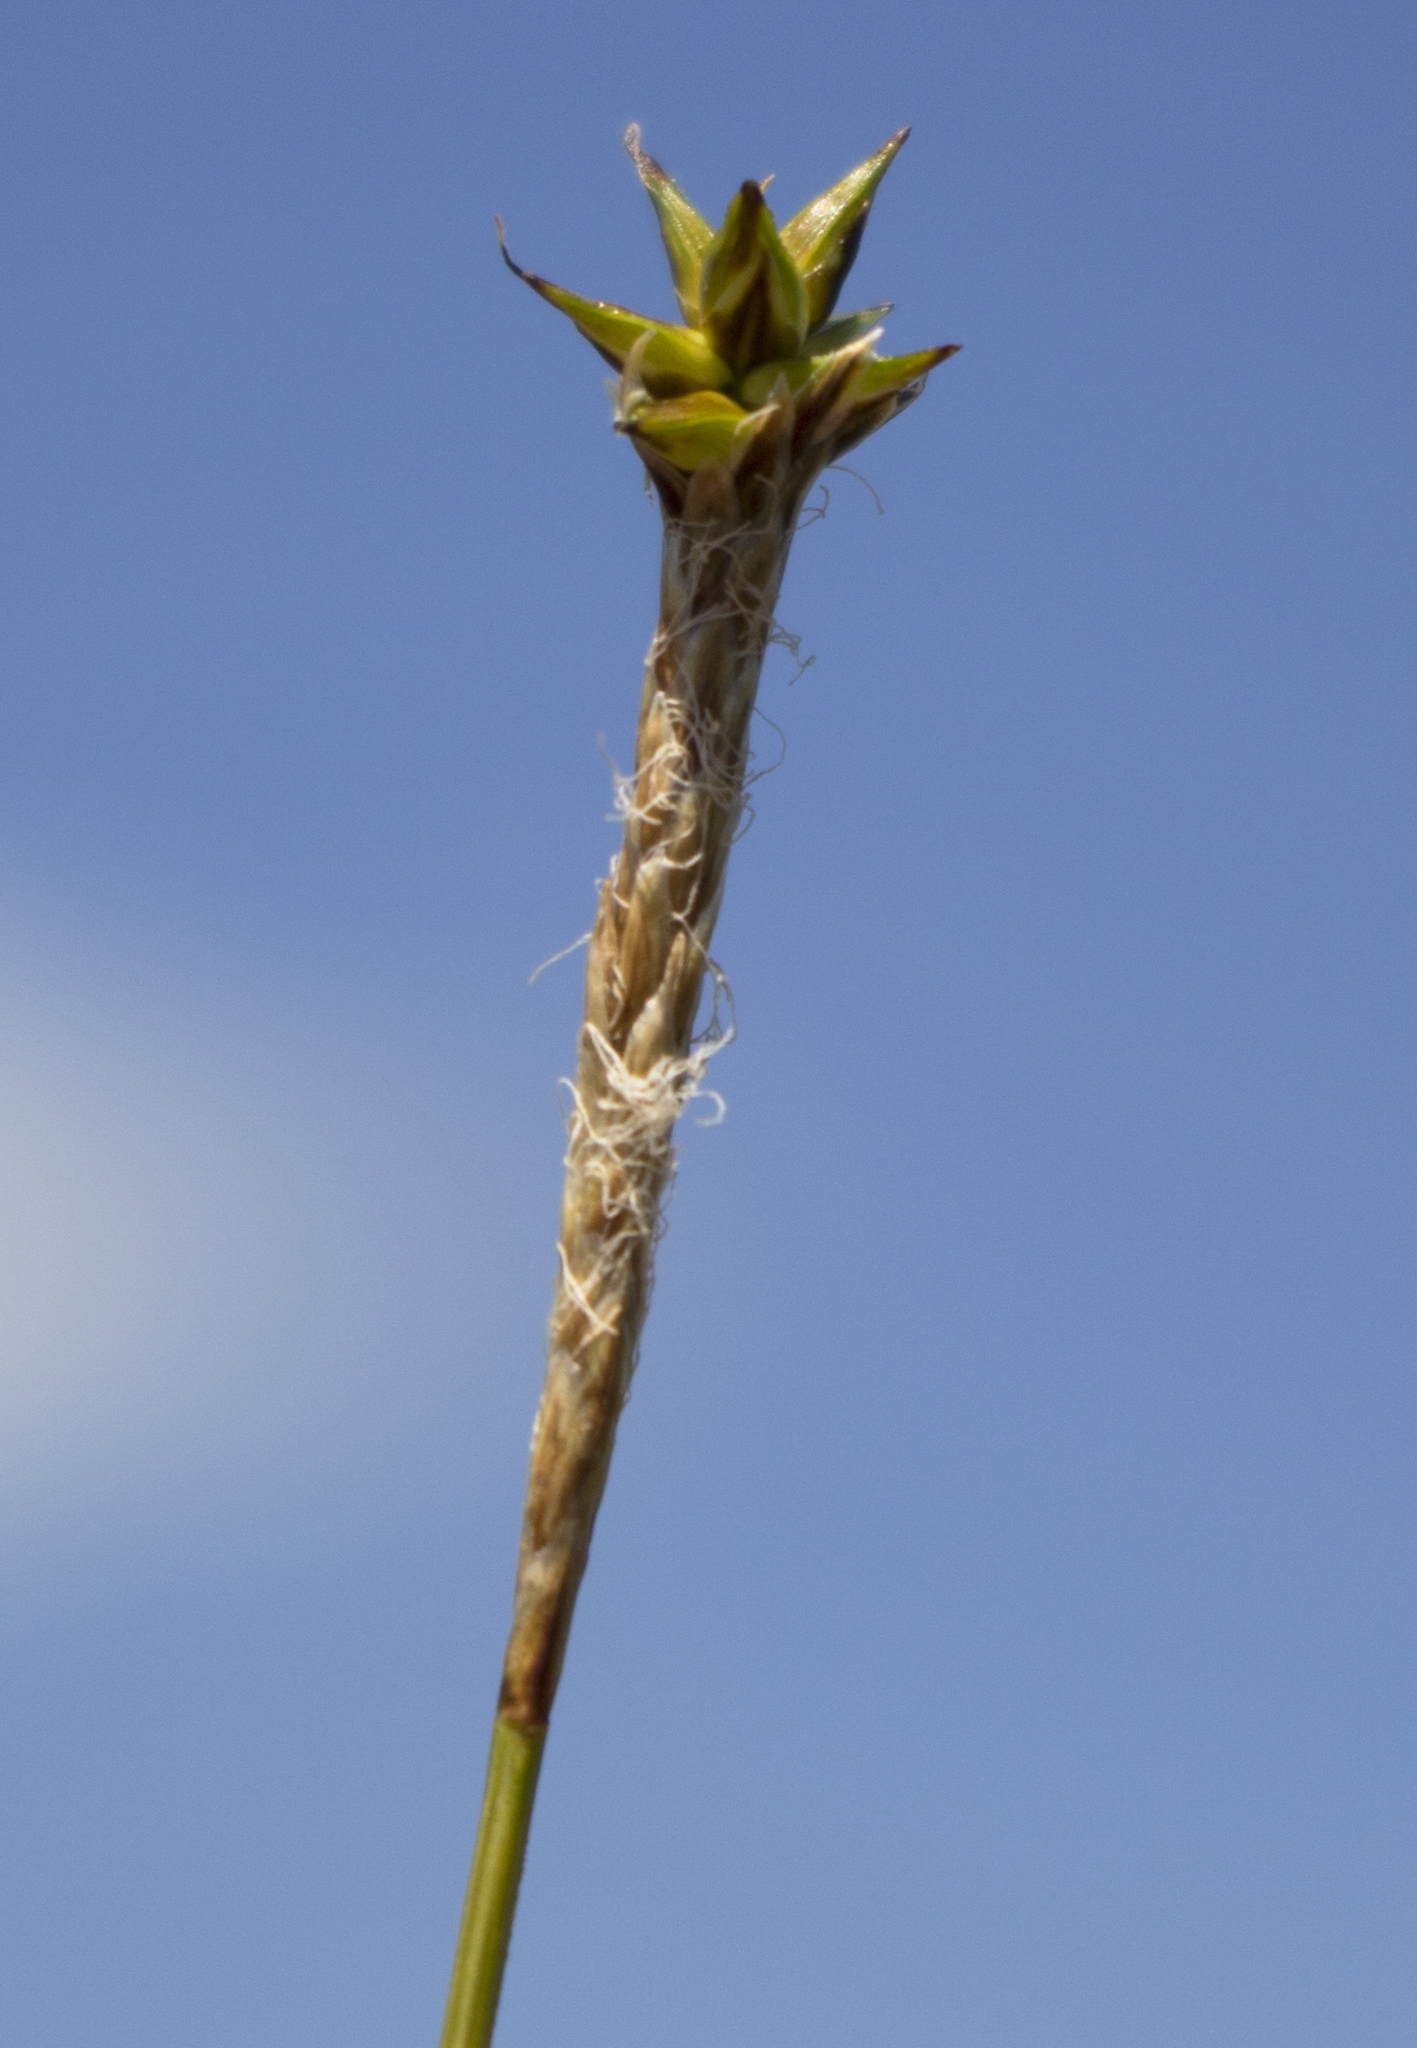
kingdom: Plantae
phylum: Tracheophyta
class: Liliopsida
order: Poales
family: Cyperaceae
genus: Carex
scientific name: Carex exilis
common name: Coastal sedge
